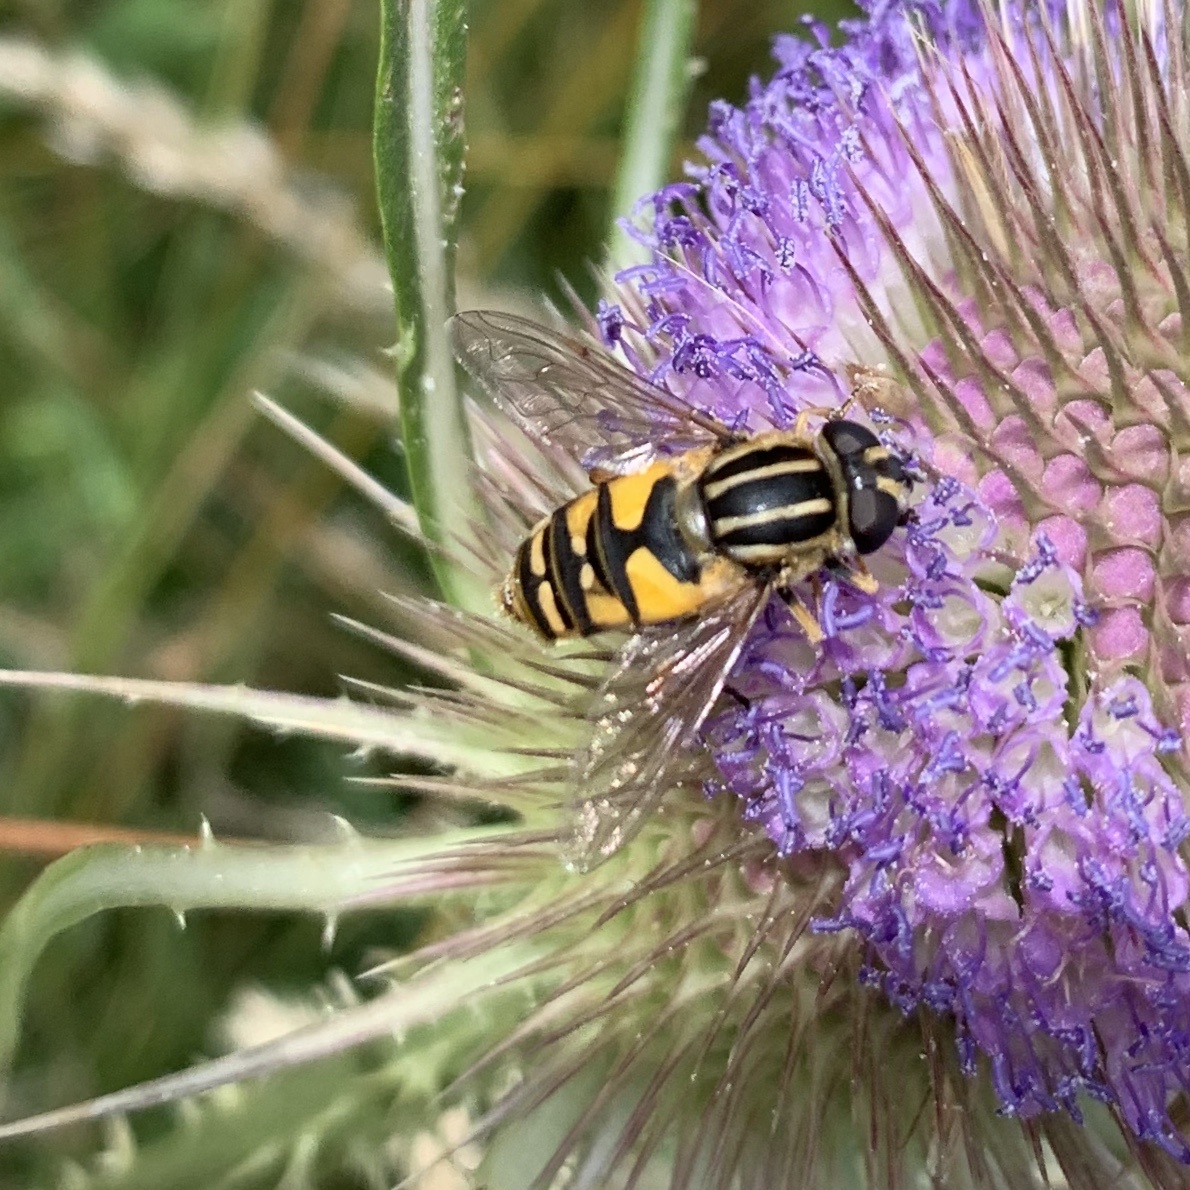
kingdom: Animalia
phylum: Arthropoda
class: Insecta
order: Diptera
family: Syrphidae
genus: Helophilus
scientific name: Helophilus pendulus
